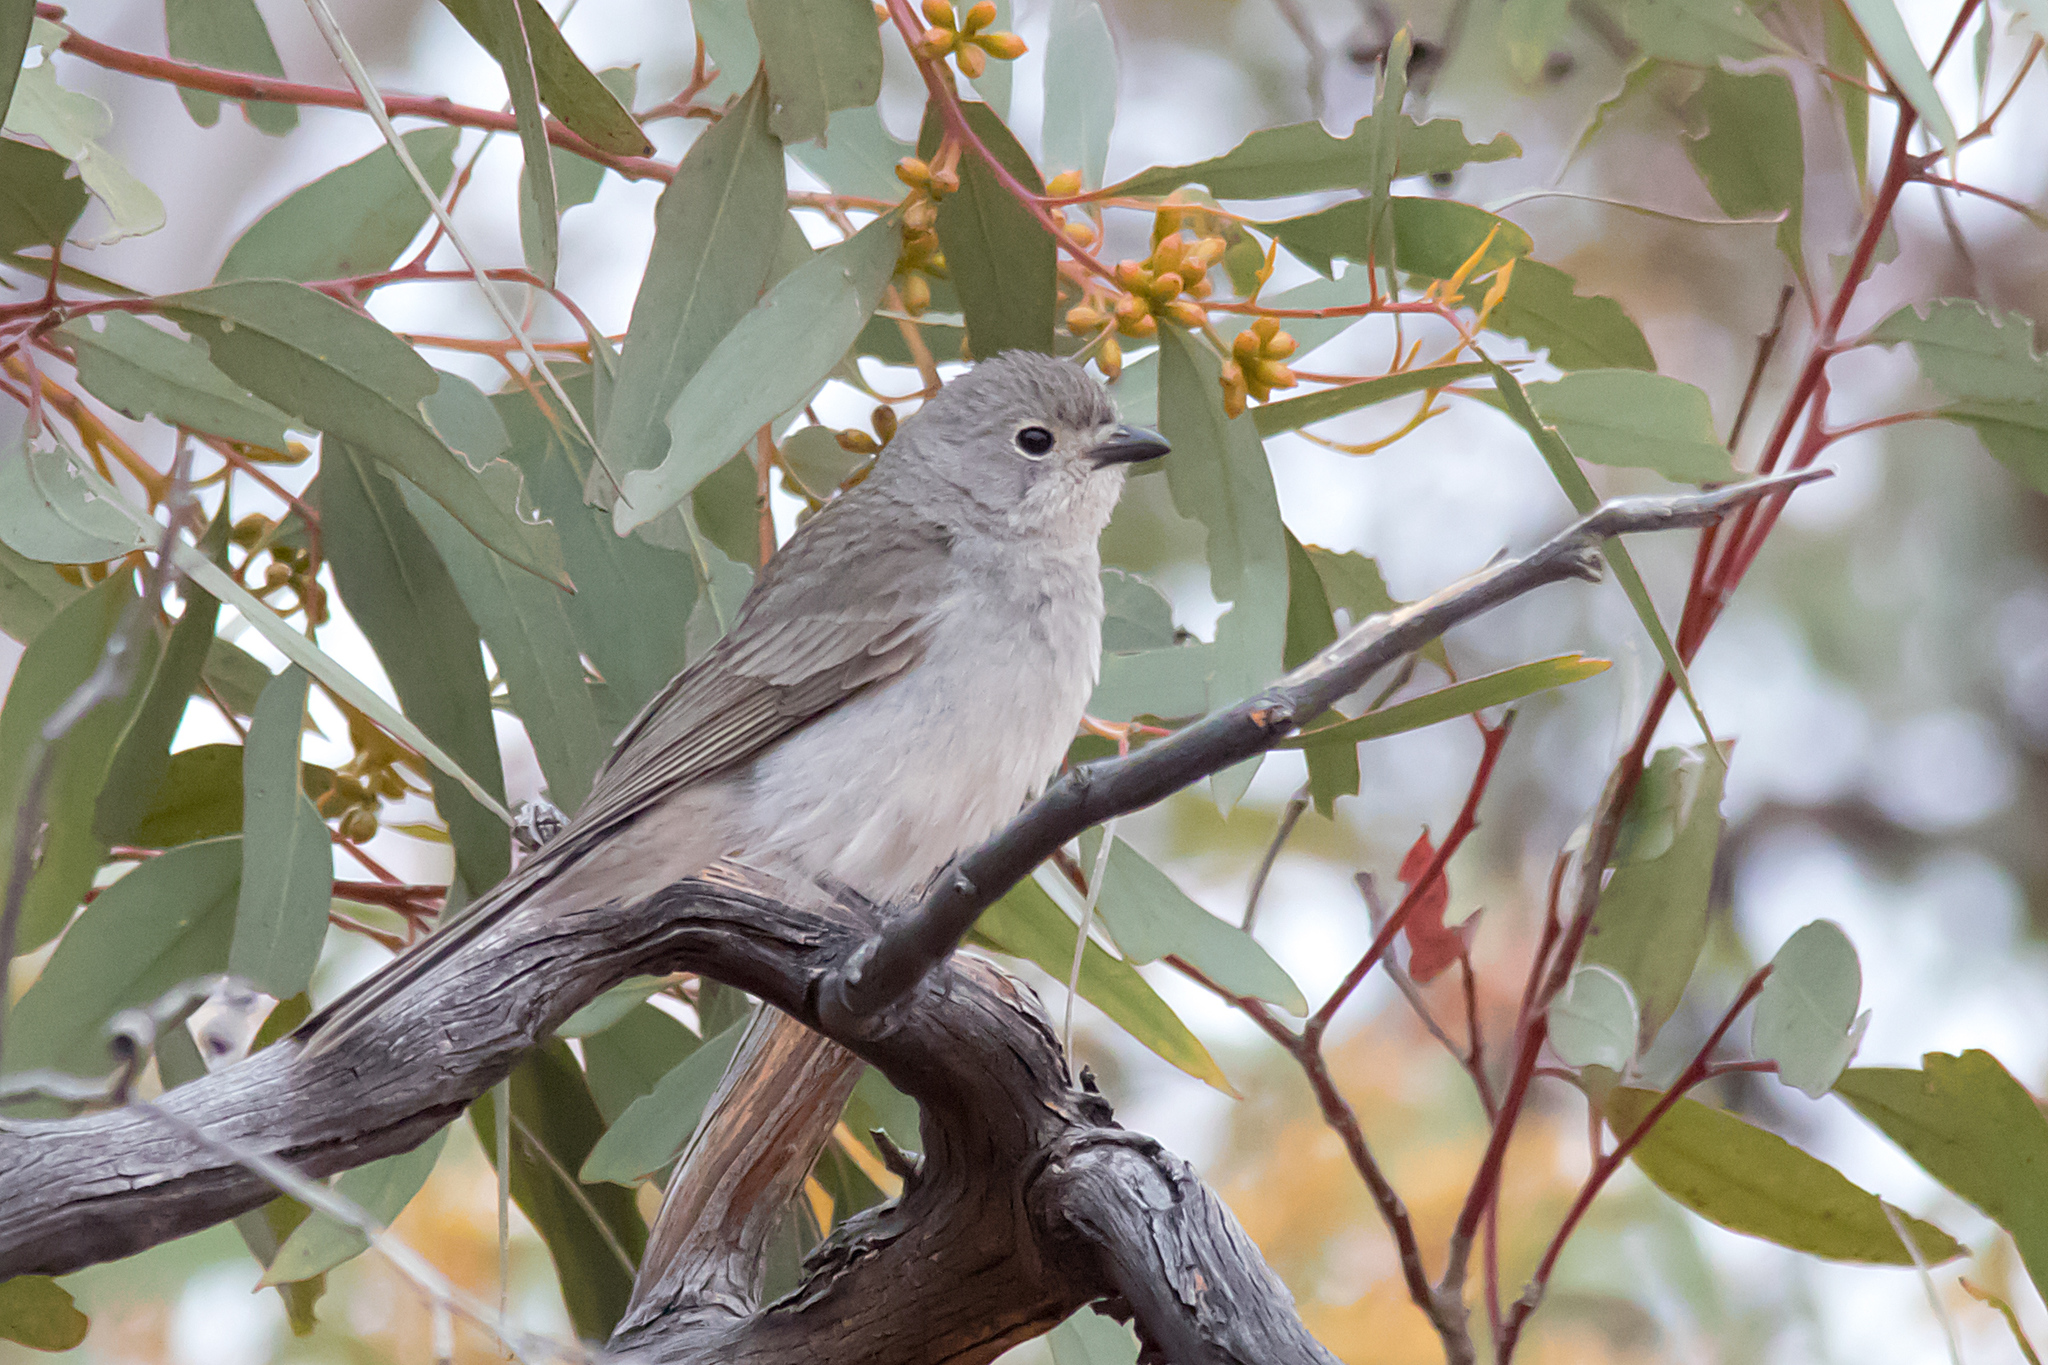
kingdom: Animalia
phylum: Chordata
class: Aves
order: Passeriformes
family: Pachycephalidae
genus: Pachycephala
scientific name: Pachycephala inornata
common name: Gilbert's whistler
